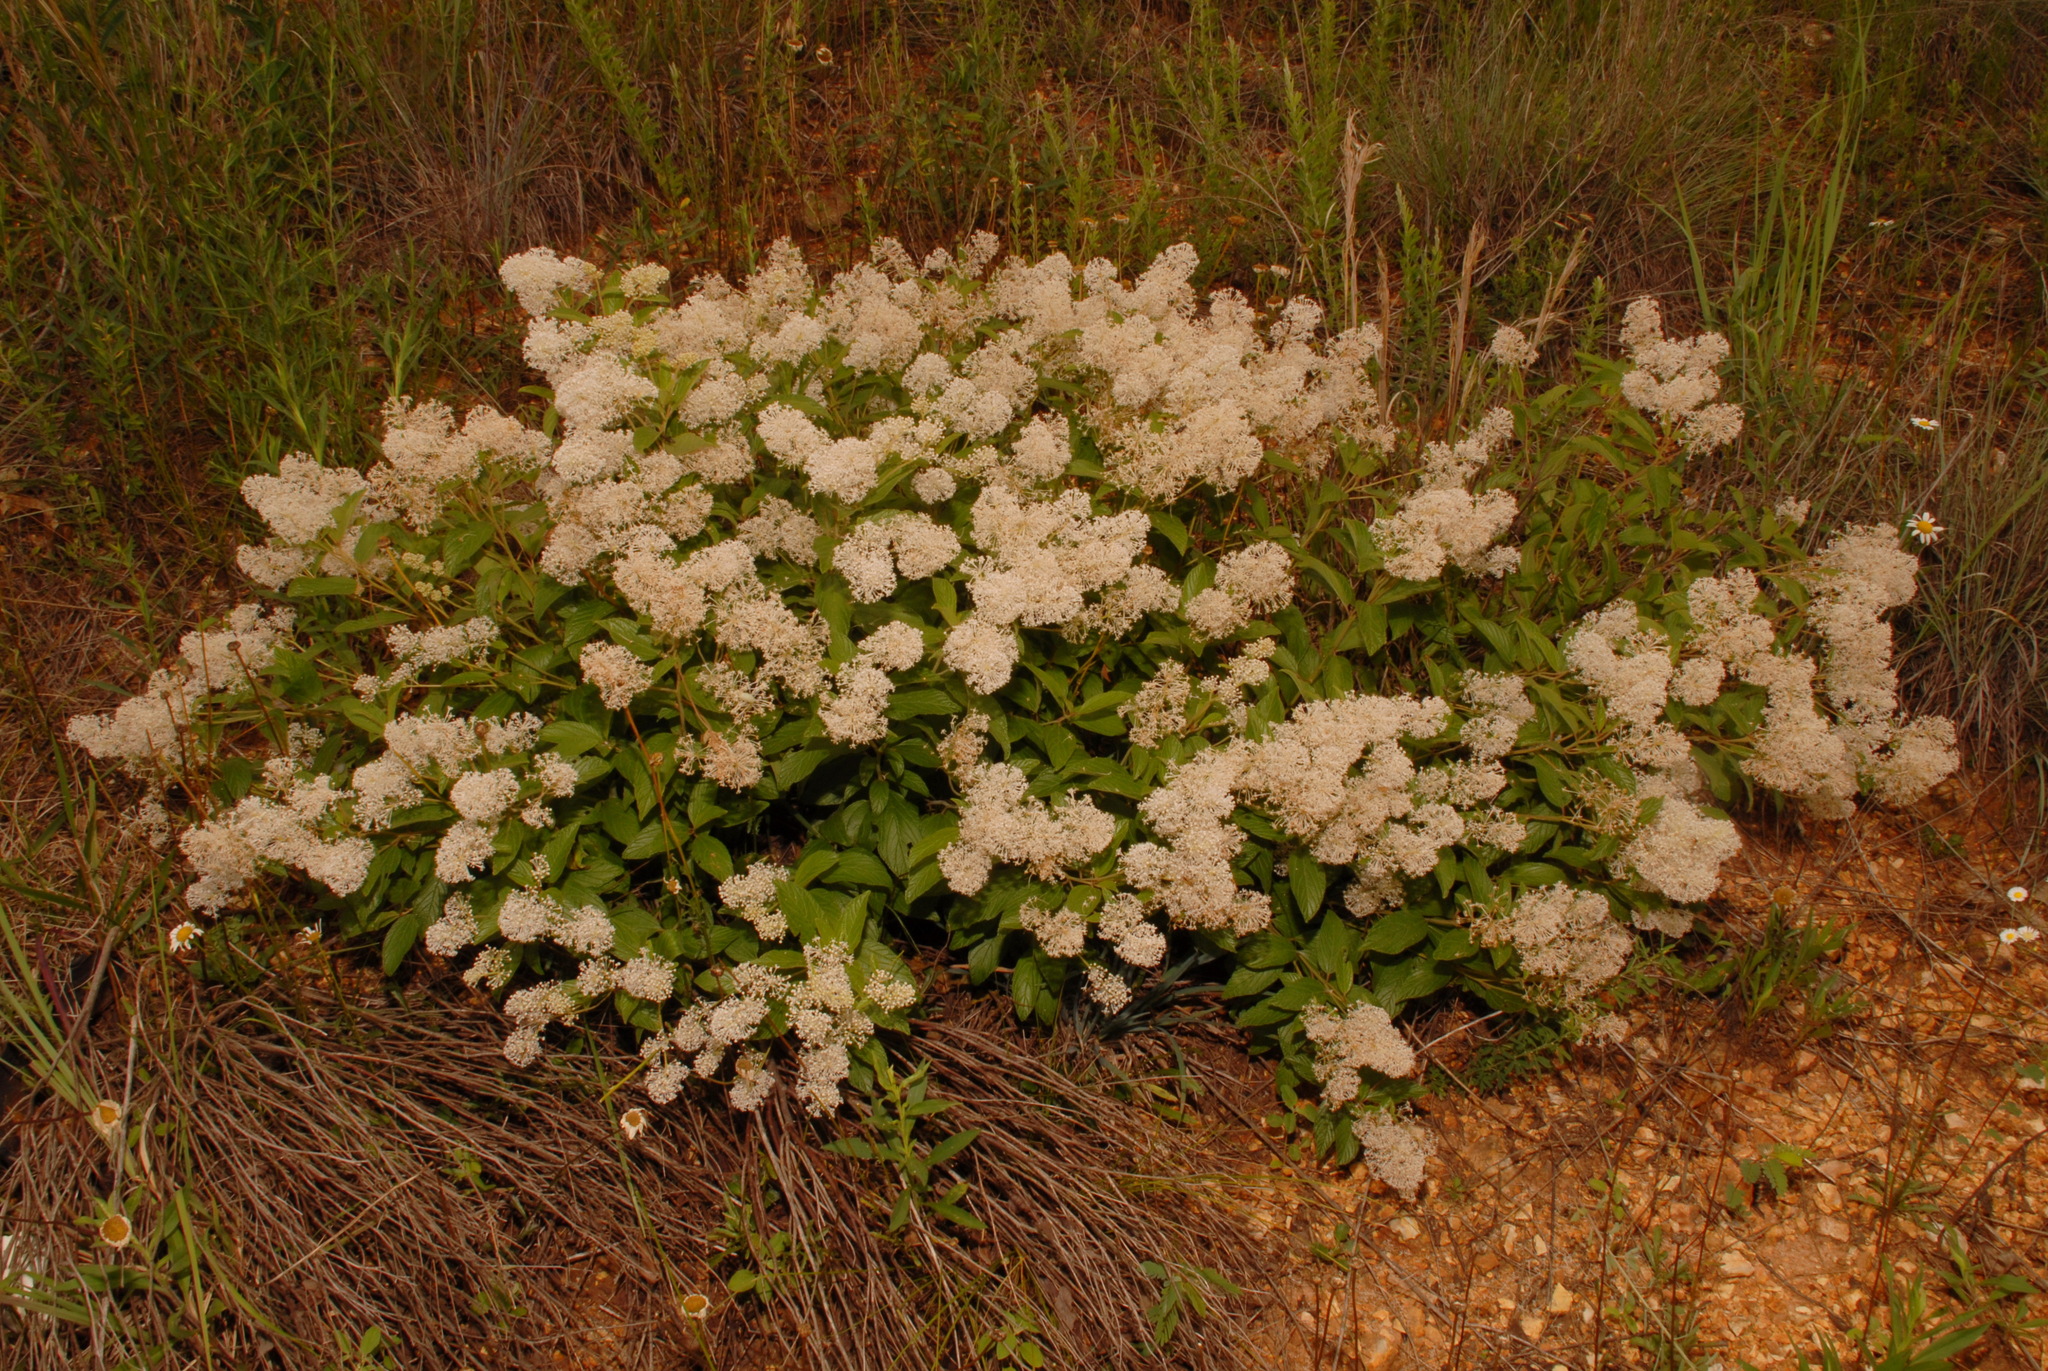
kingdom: Plantae
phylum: Tracheophyta
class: Magnoliopsida
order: Rosales
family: Rhamnaceae
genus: Ceanothus
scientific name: Ceanothus americanus
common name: Redroot
